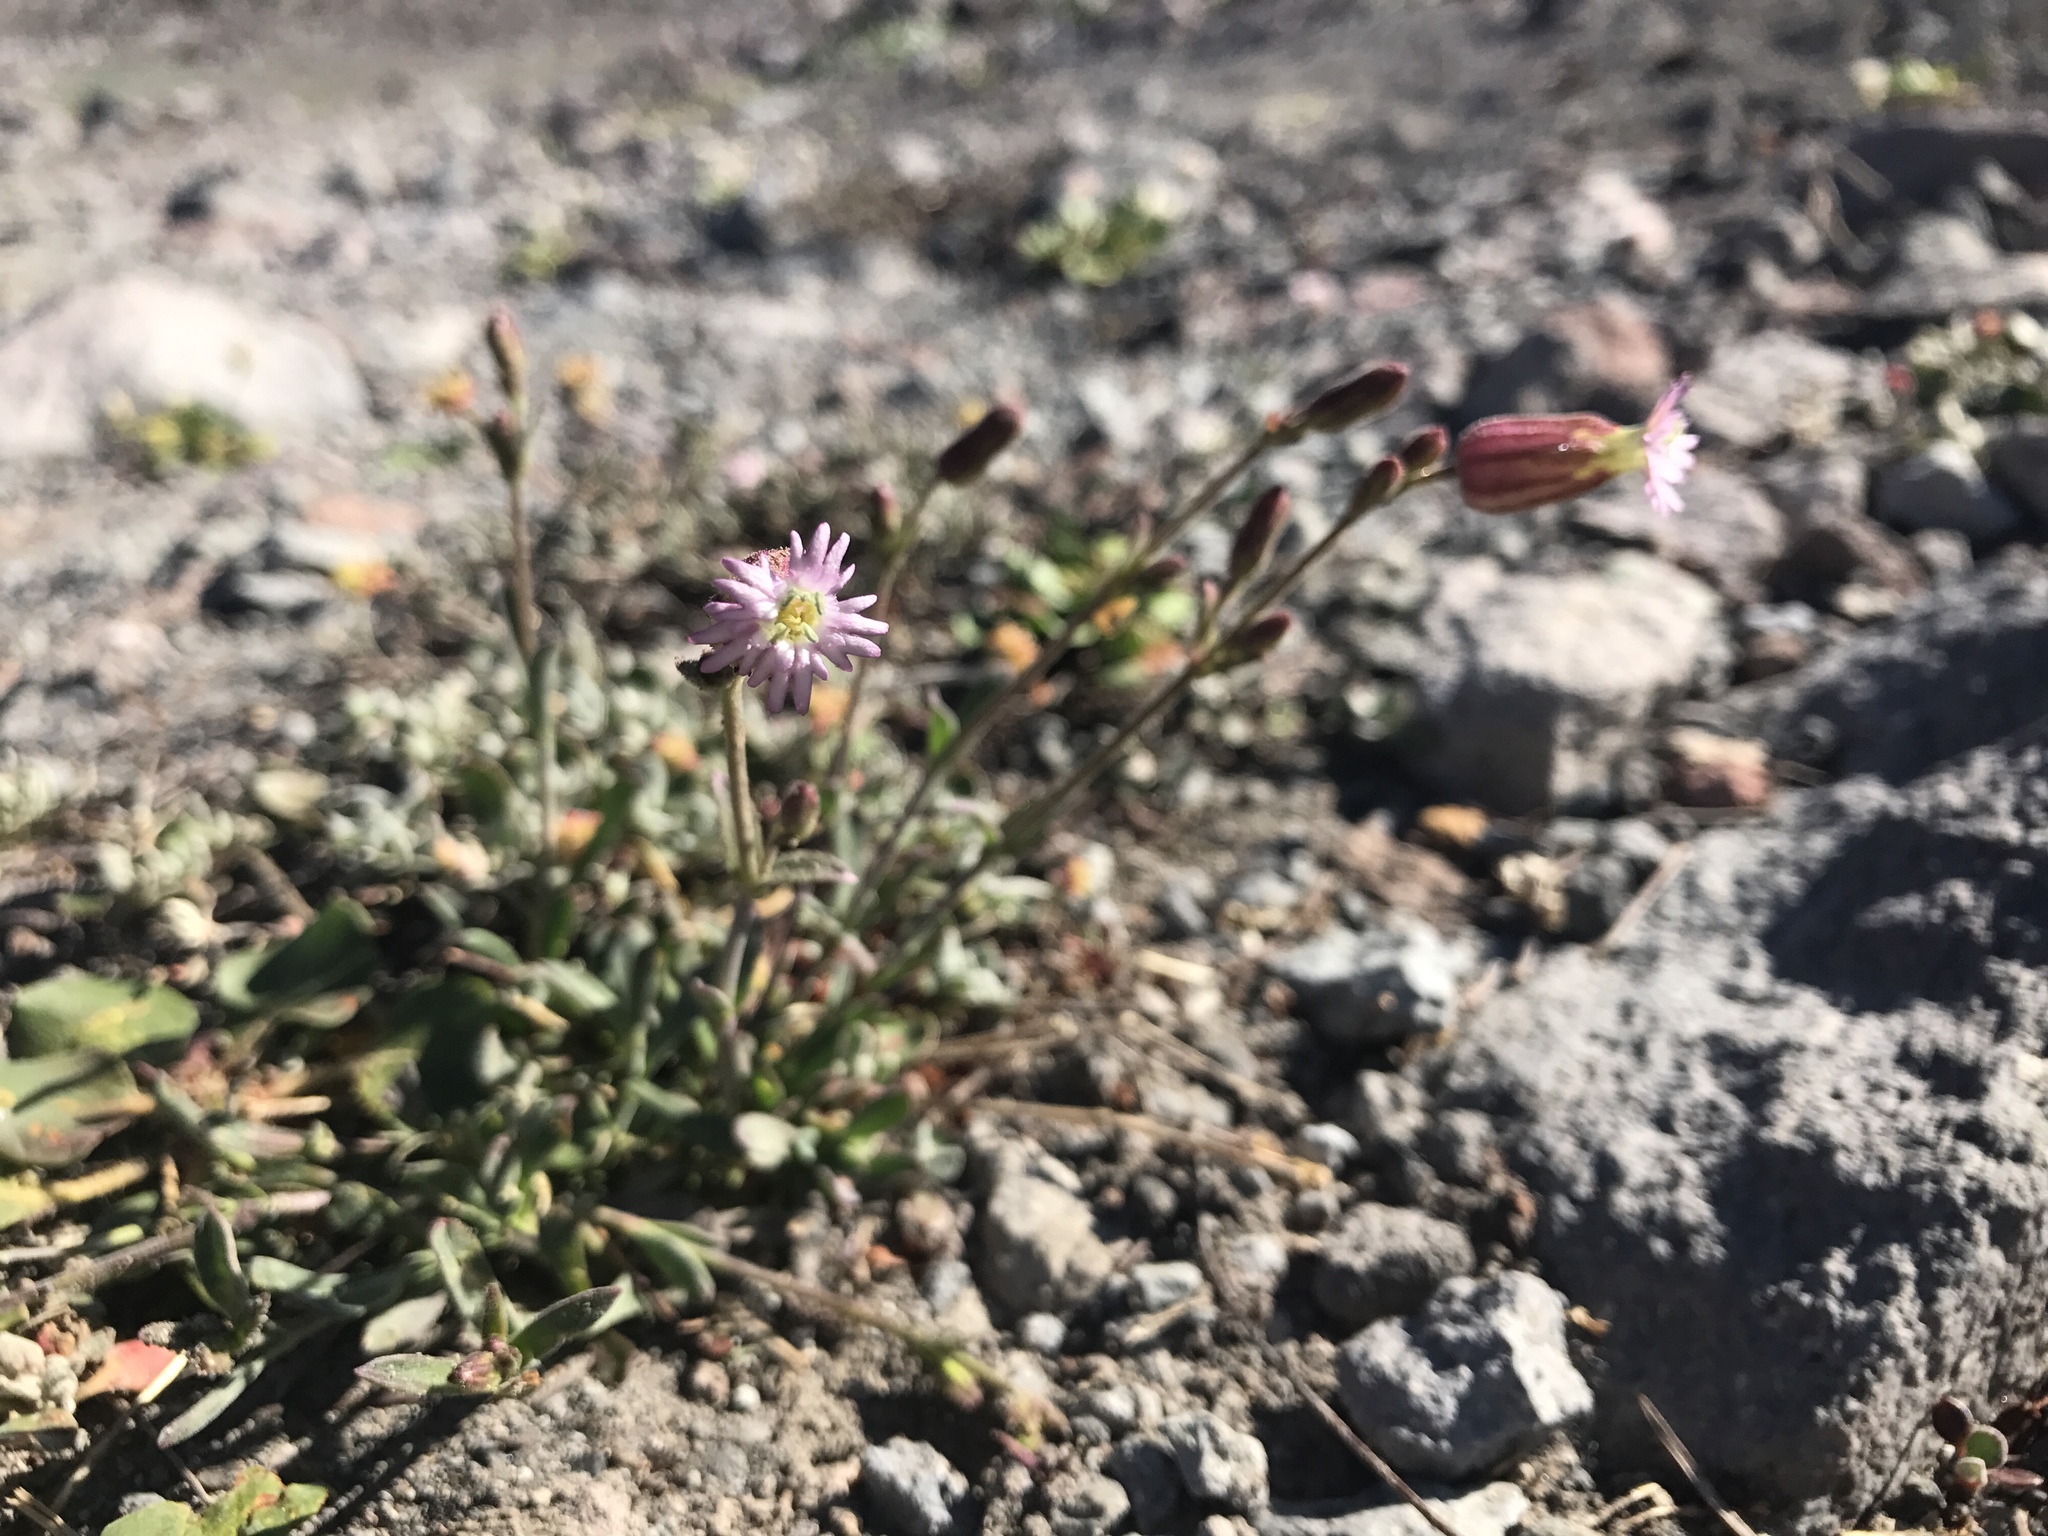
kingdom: Plantae
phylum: Tracheophyta
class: Magnoliopsida
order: Caryophyllales
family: Caryophyllaceae
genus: Silene
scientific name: Silene grayi
